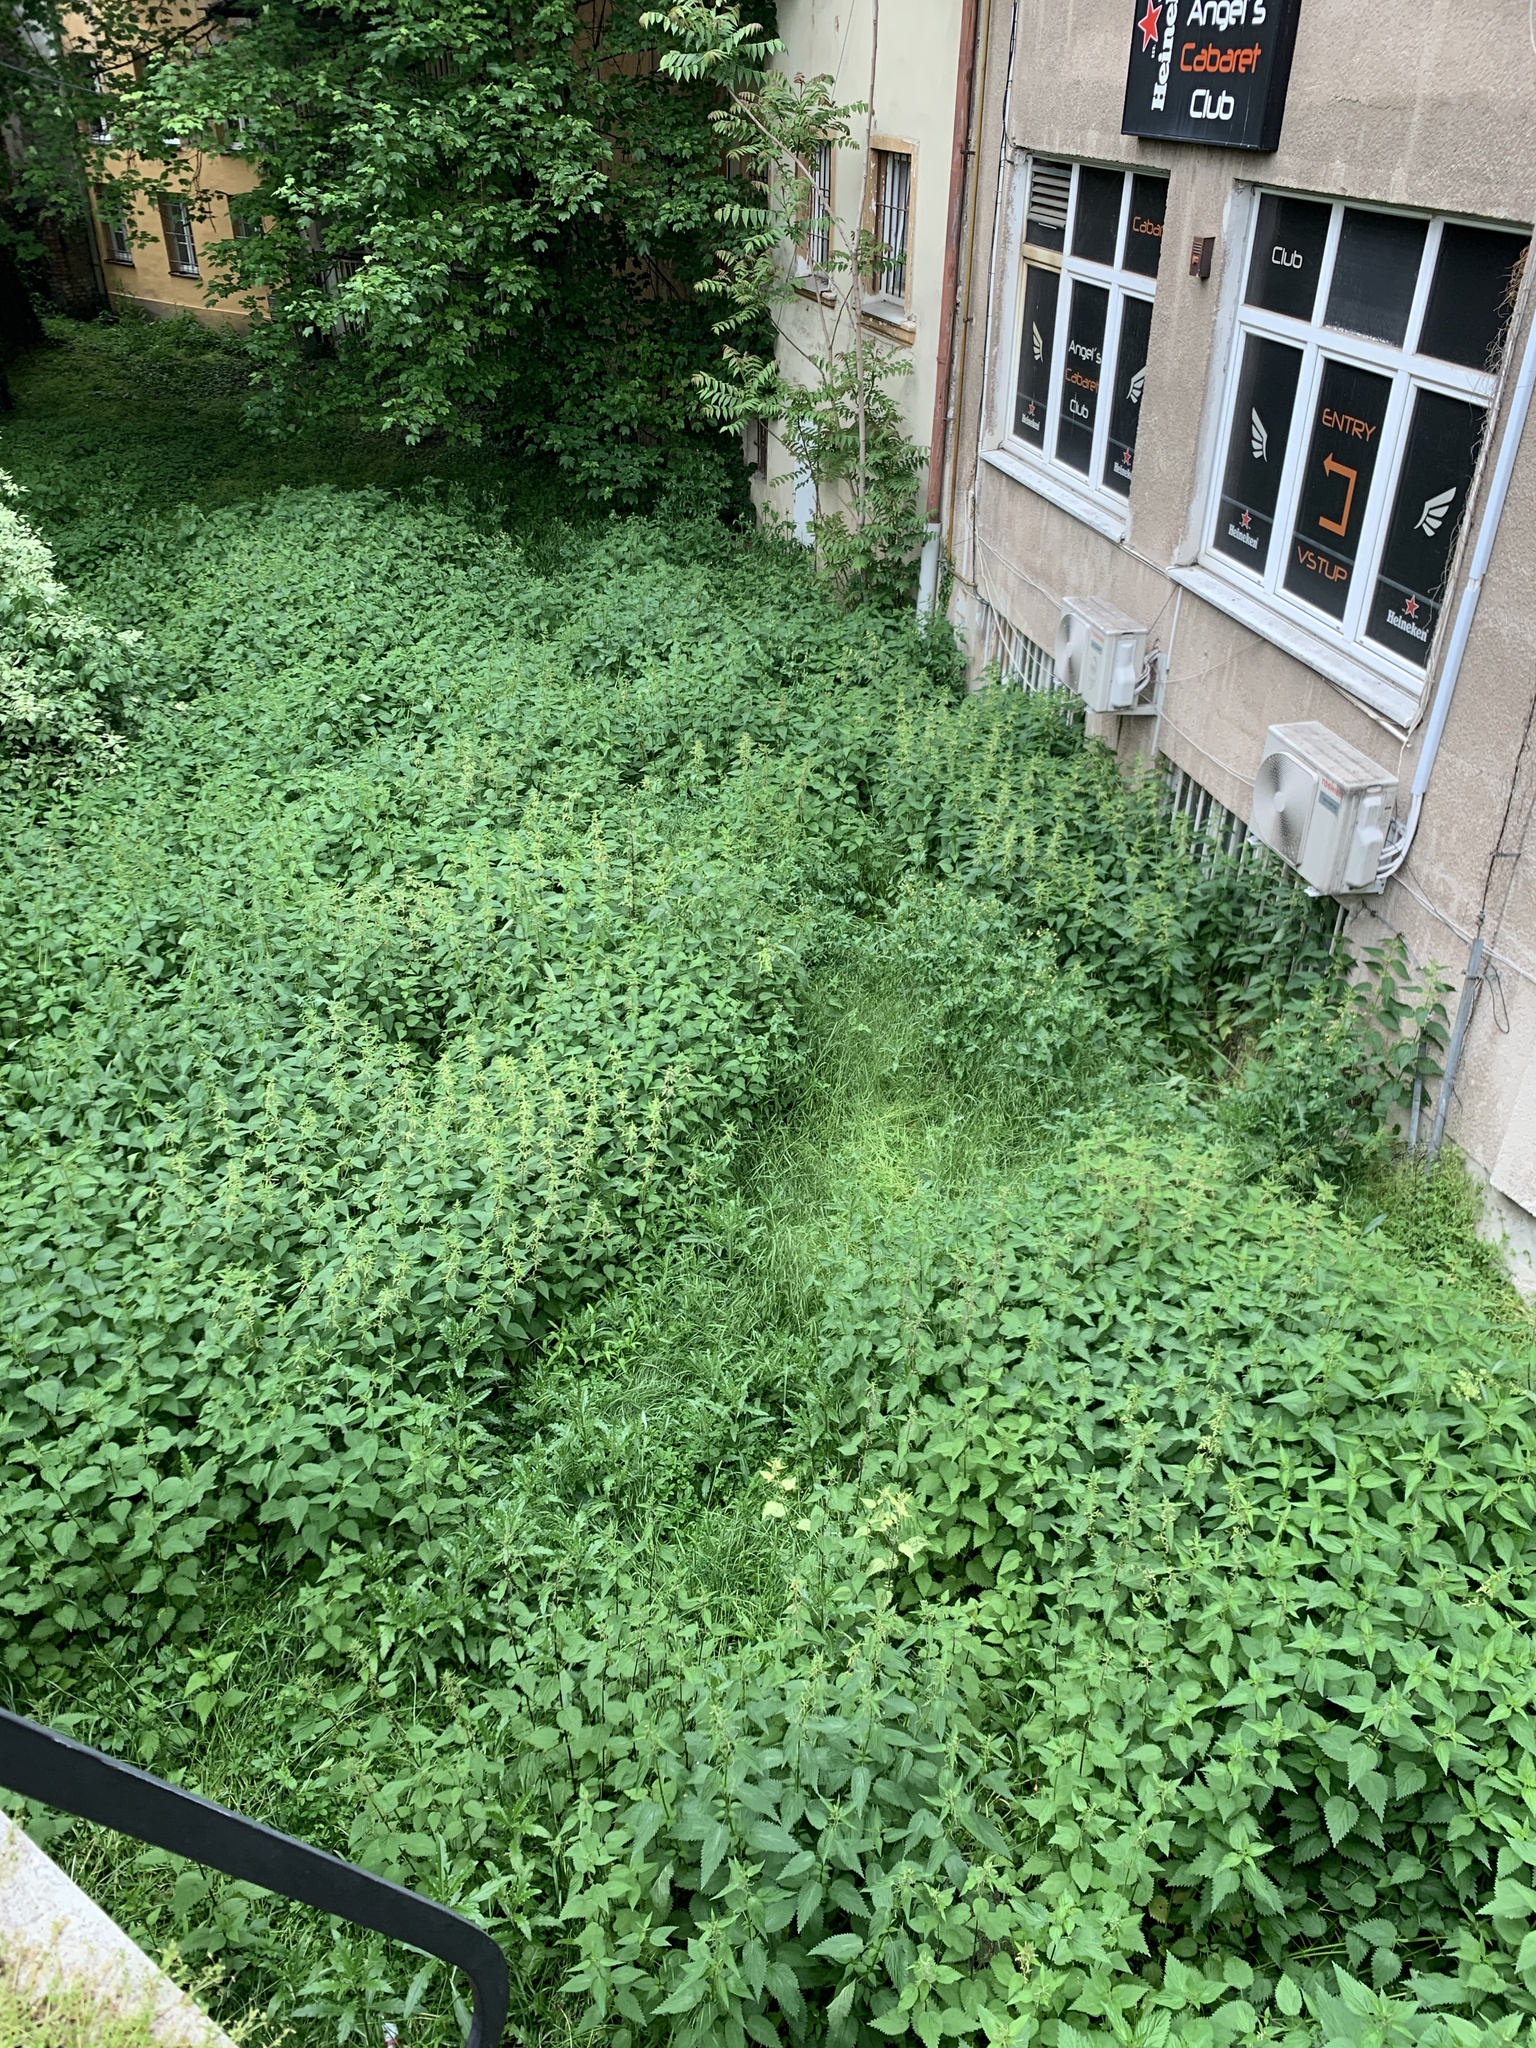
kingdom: Plantae
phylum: Tracheophyta
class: Magnoliopsida
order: Rosales
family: Urticaceae
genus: Urtica
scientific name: Urtica dioica
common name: Common nettle
